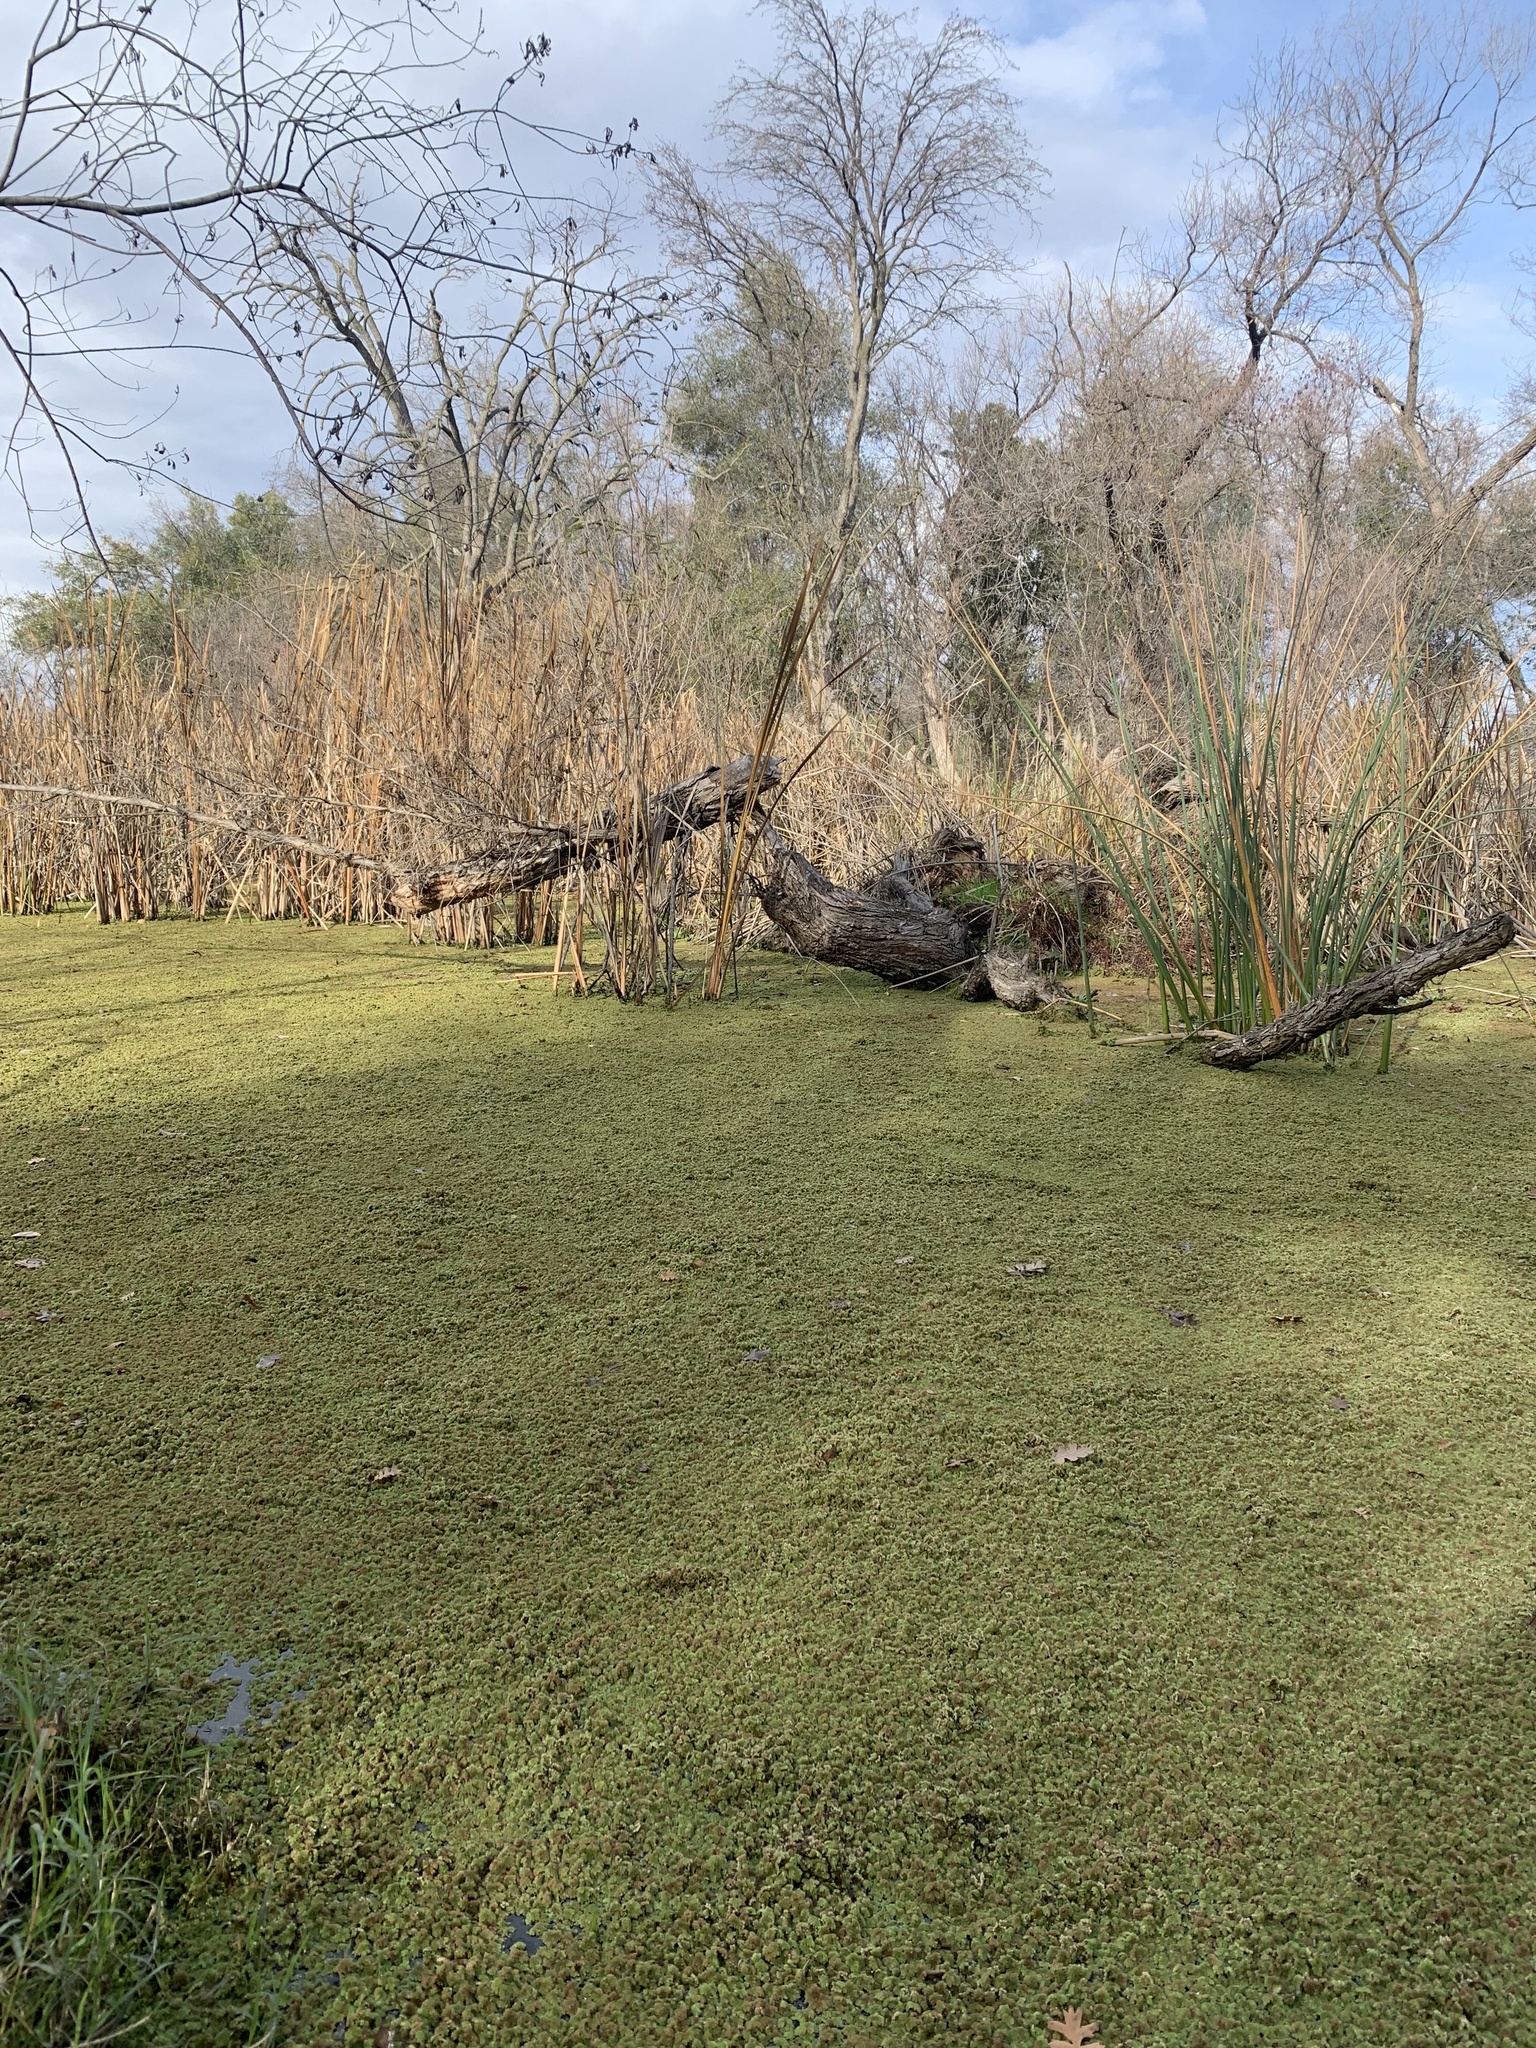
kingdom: Plantae
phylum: Tracheophyta
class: Polypodiopsida
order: Salviniales
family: Salviniaceae
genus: Azolla
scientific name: Azolla filiculoides
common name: Water fern
